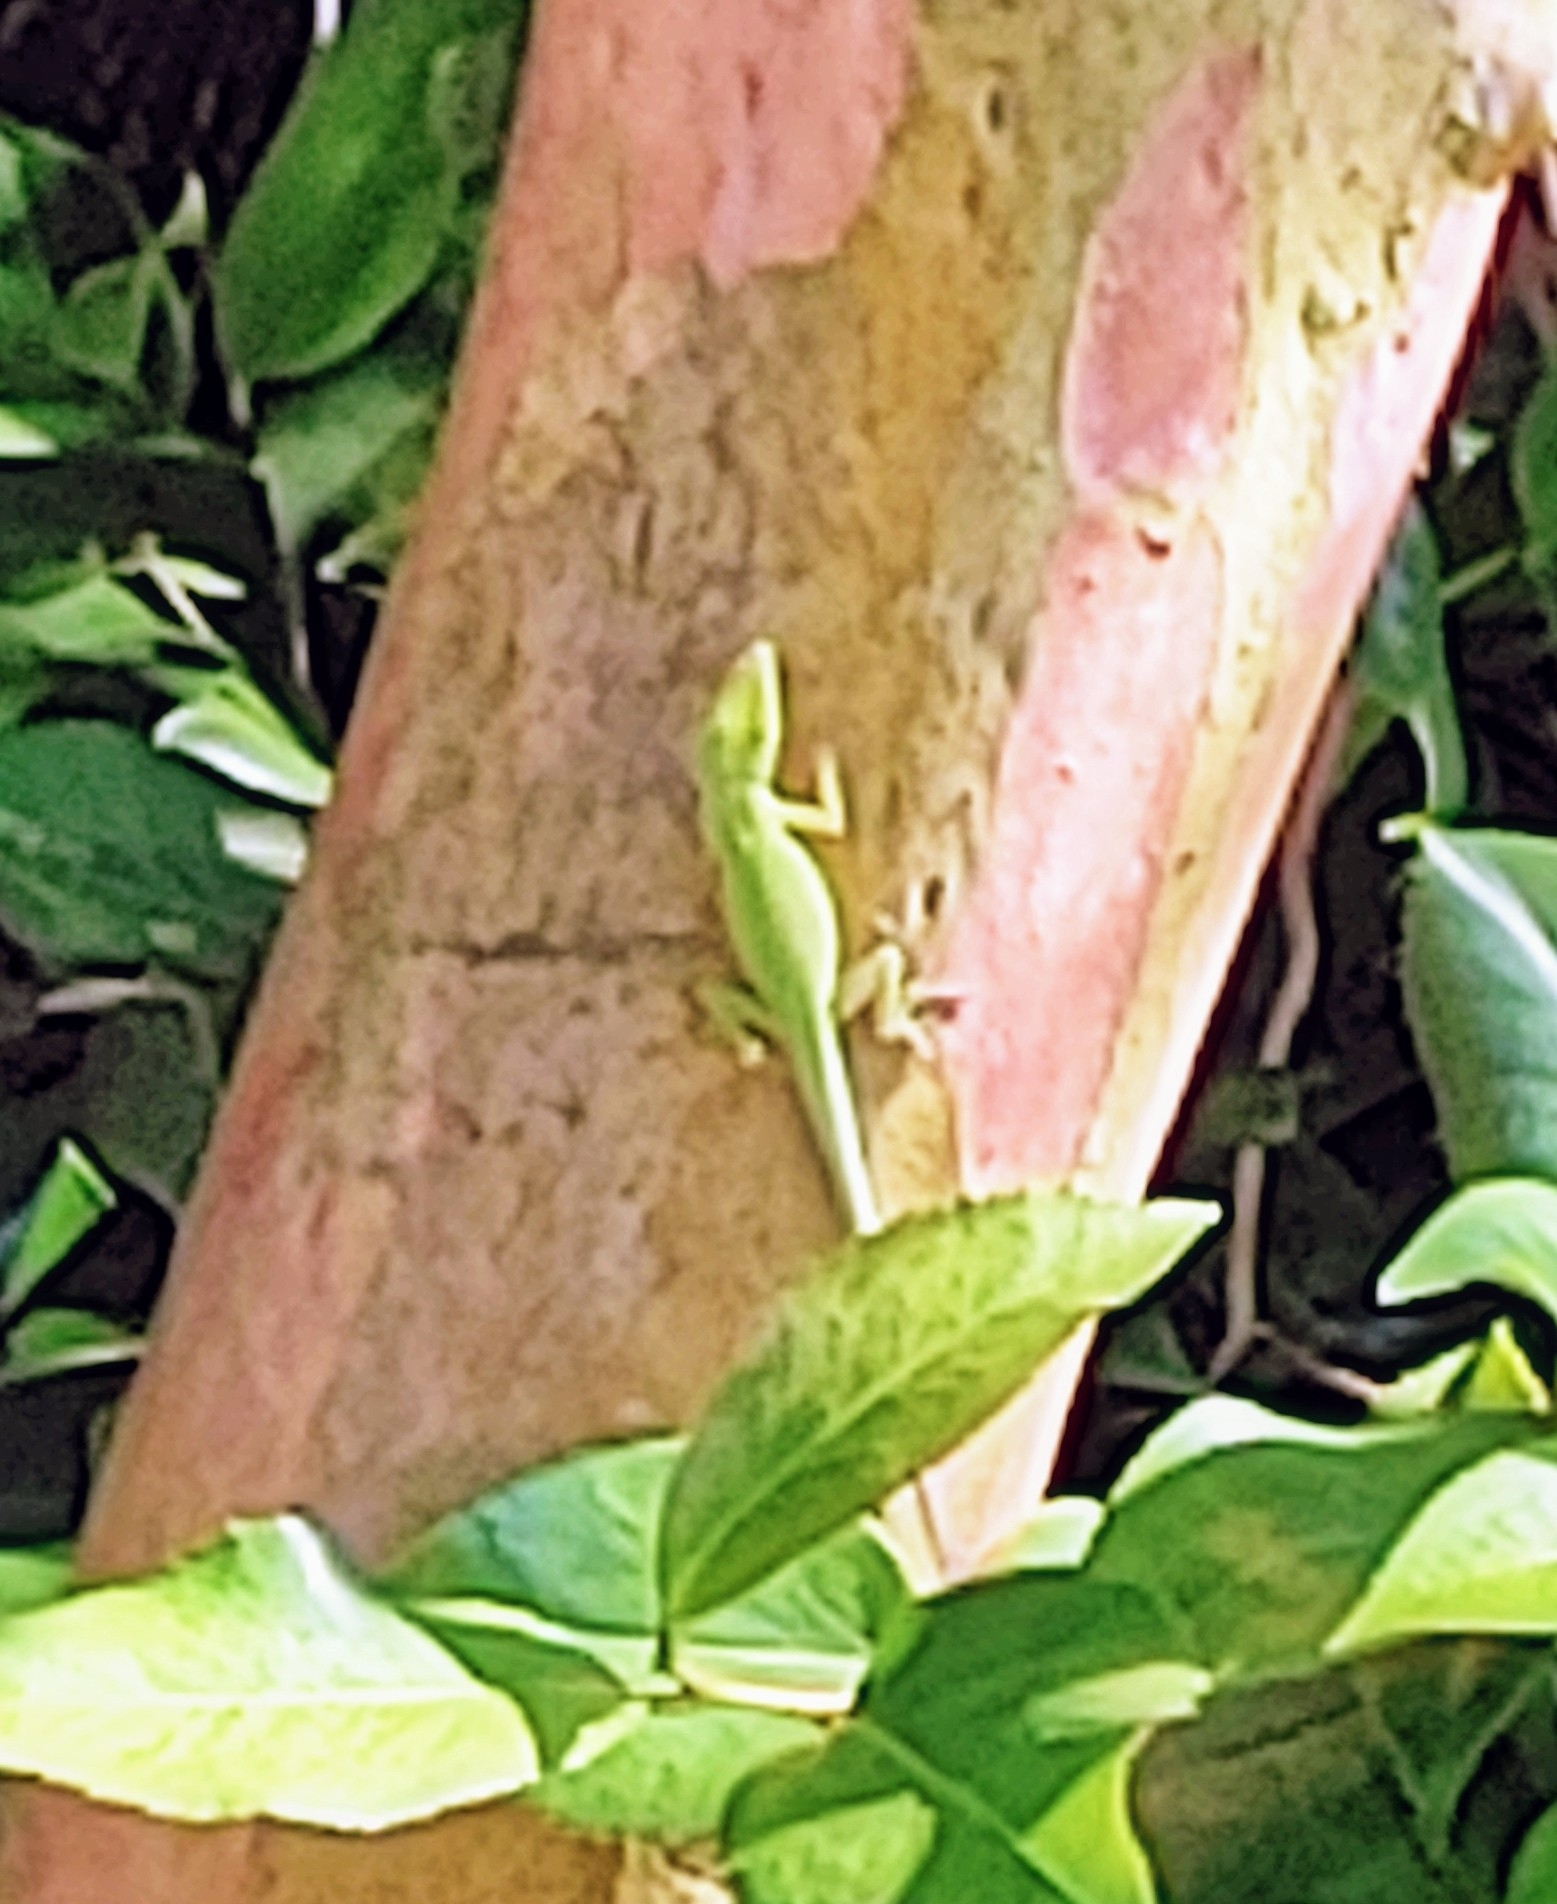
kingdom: Animalia
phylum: Chordata
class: Squamata
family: Dactyloidae
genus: Anolis
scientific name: Anolis carolinensis
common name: Green anole
